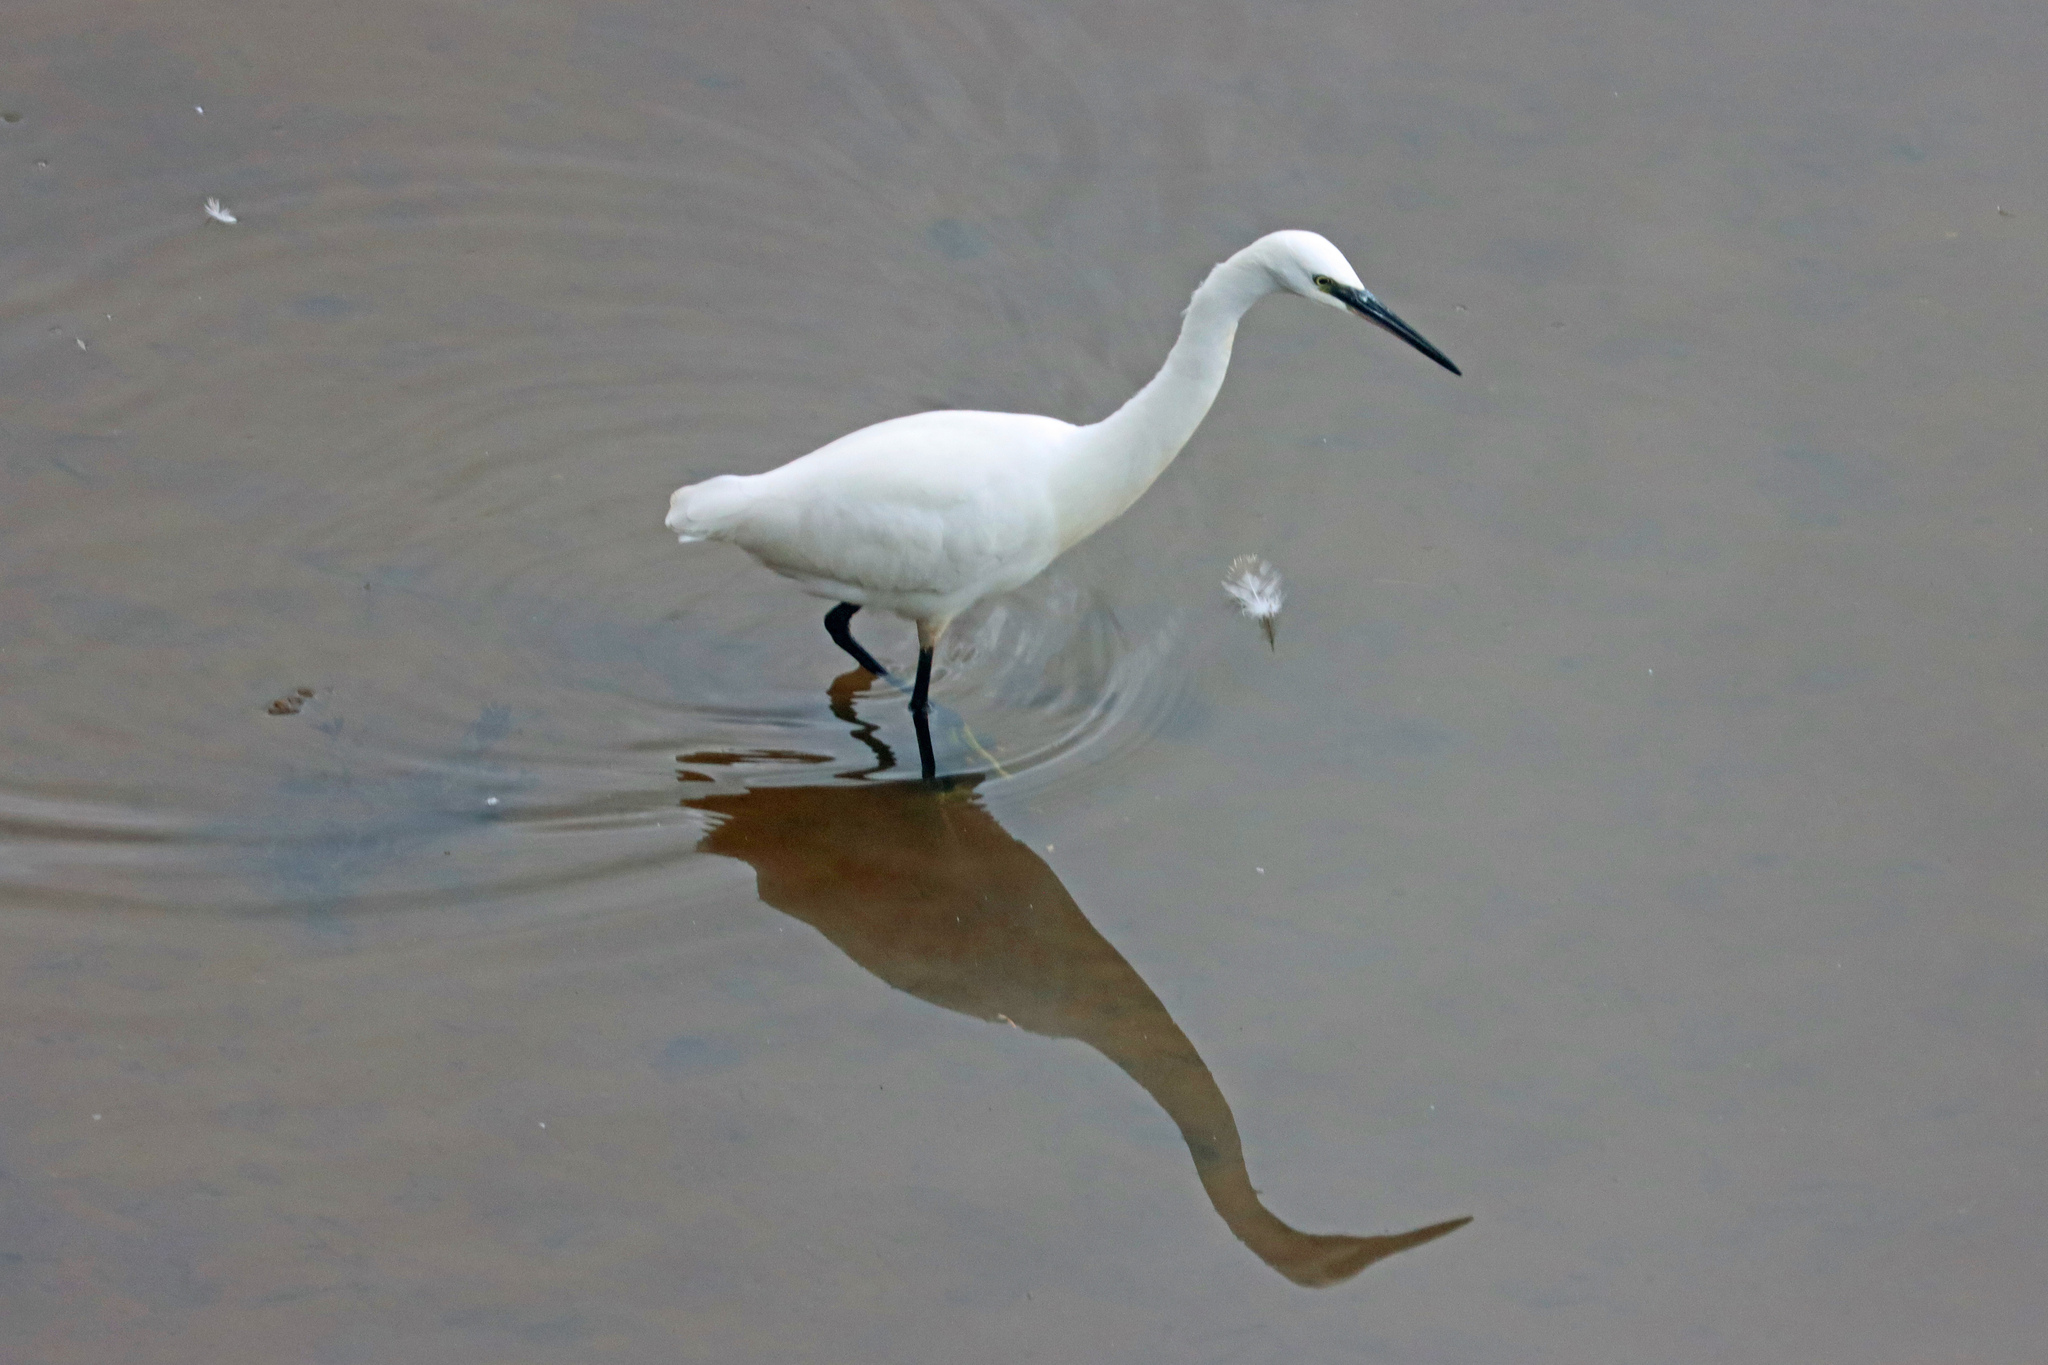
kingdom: Animalia
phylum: Chordata
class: Aves
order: Pelecaniformes
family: Ardeidae
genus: Egretta
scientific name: Egretta garzetta
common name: Little egret
